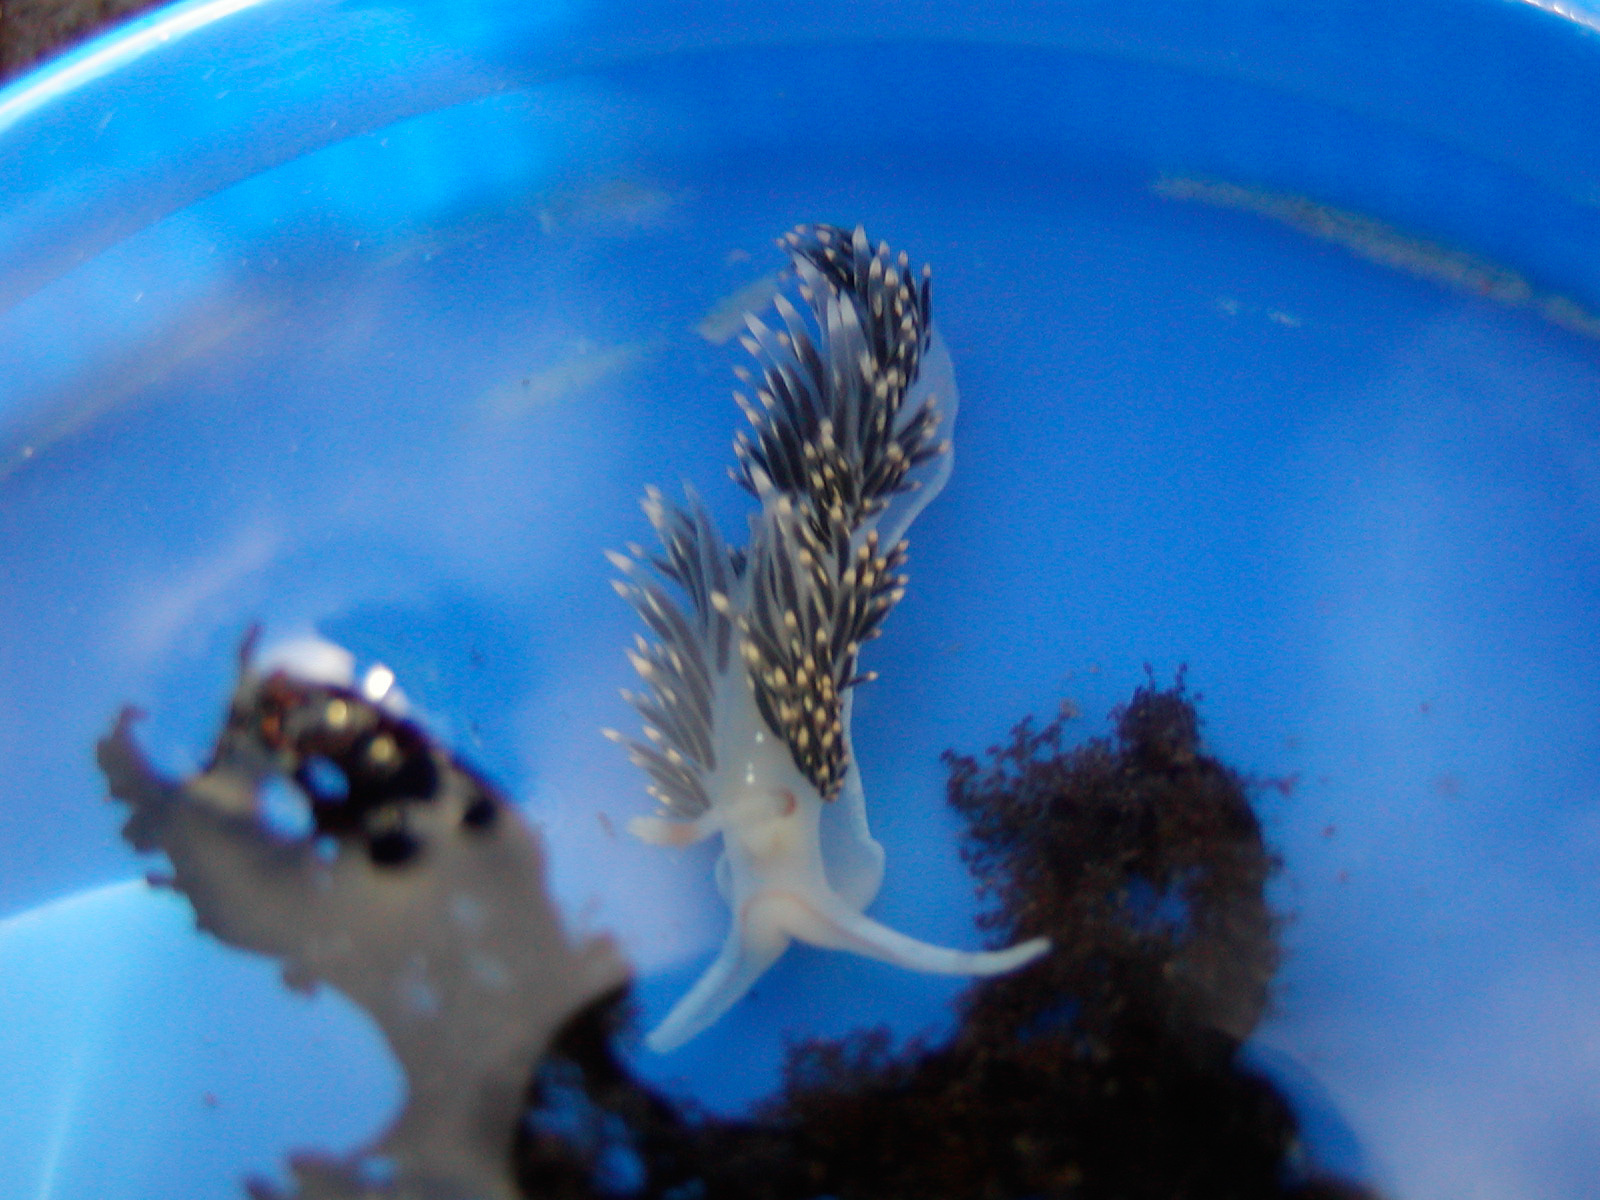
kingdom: Animalia
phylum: Mollusca
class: Gastropoda
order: Nudibranchia
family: Facelinidae
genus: Phidiana
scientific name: Phidiana hiltoni
